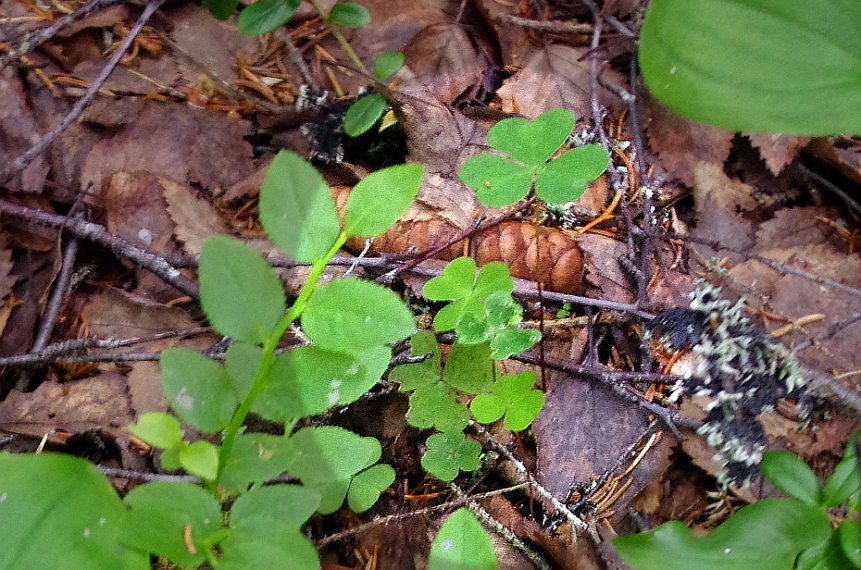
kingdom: Plantae
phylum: Tracheophyta
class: Magnoliopsida
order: Oxalidales
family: Oxalidaceae
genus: Oxalis
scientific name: Oxalis acetosella
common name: Wood-sorrel
